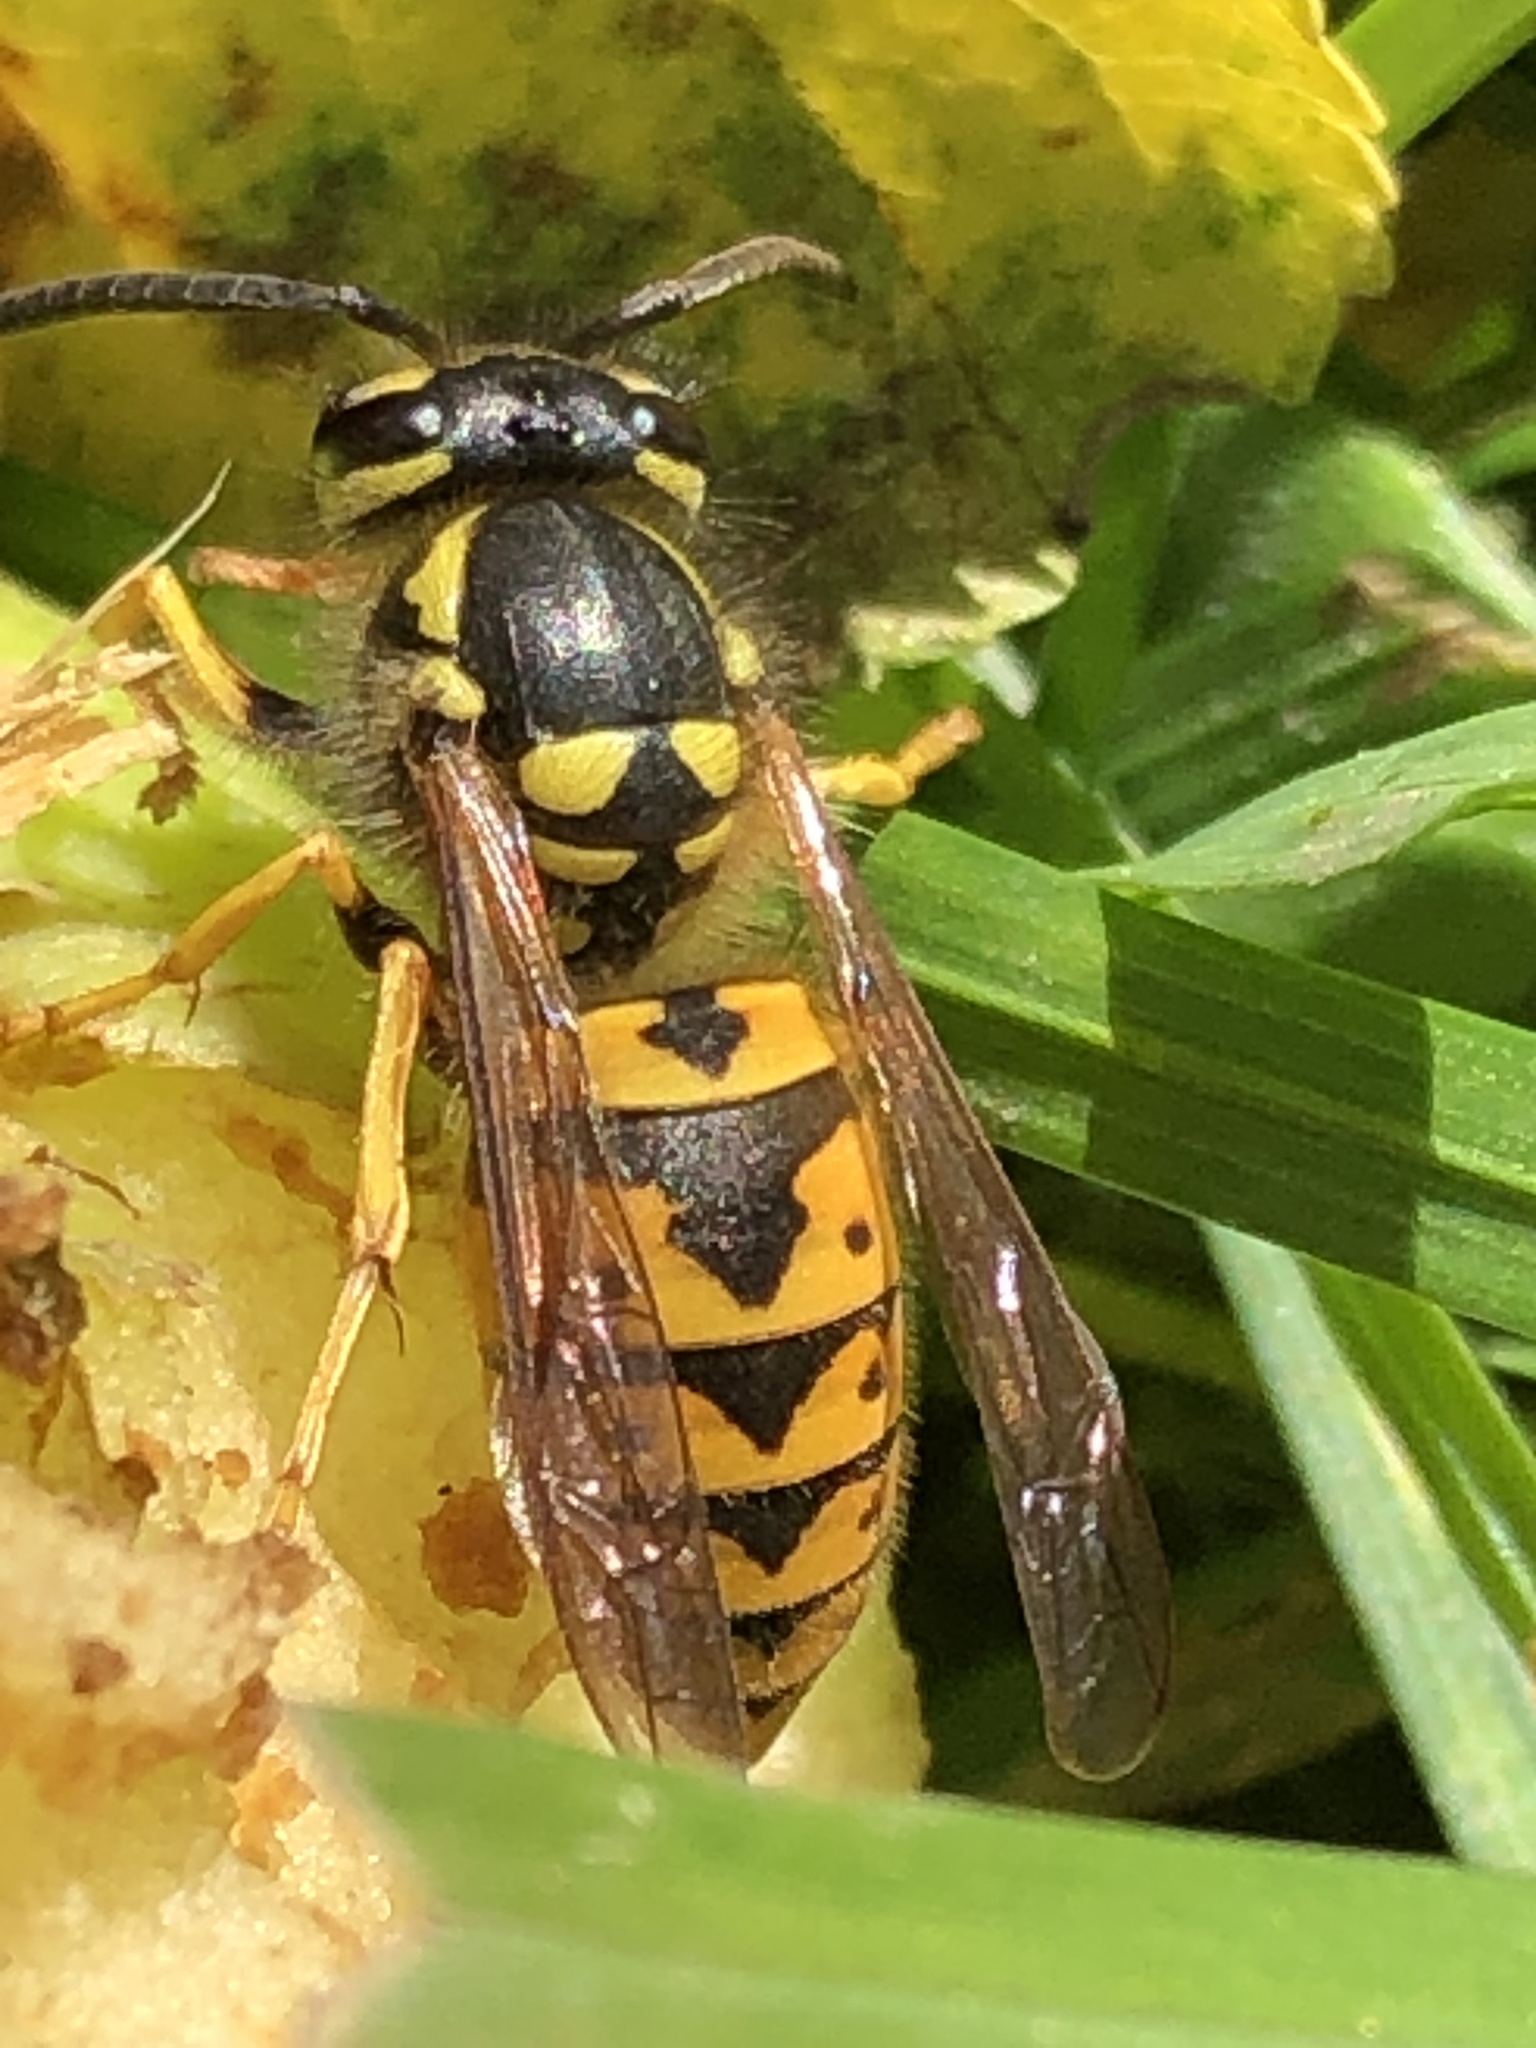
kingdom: Animalia
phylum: Arthropoda
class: Insecta
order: Hymenoptera
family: Vespidae
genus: Vespula
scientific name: Vespula germanica
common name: German wasp
